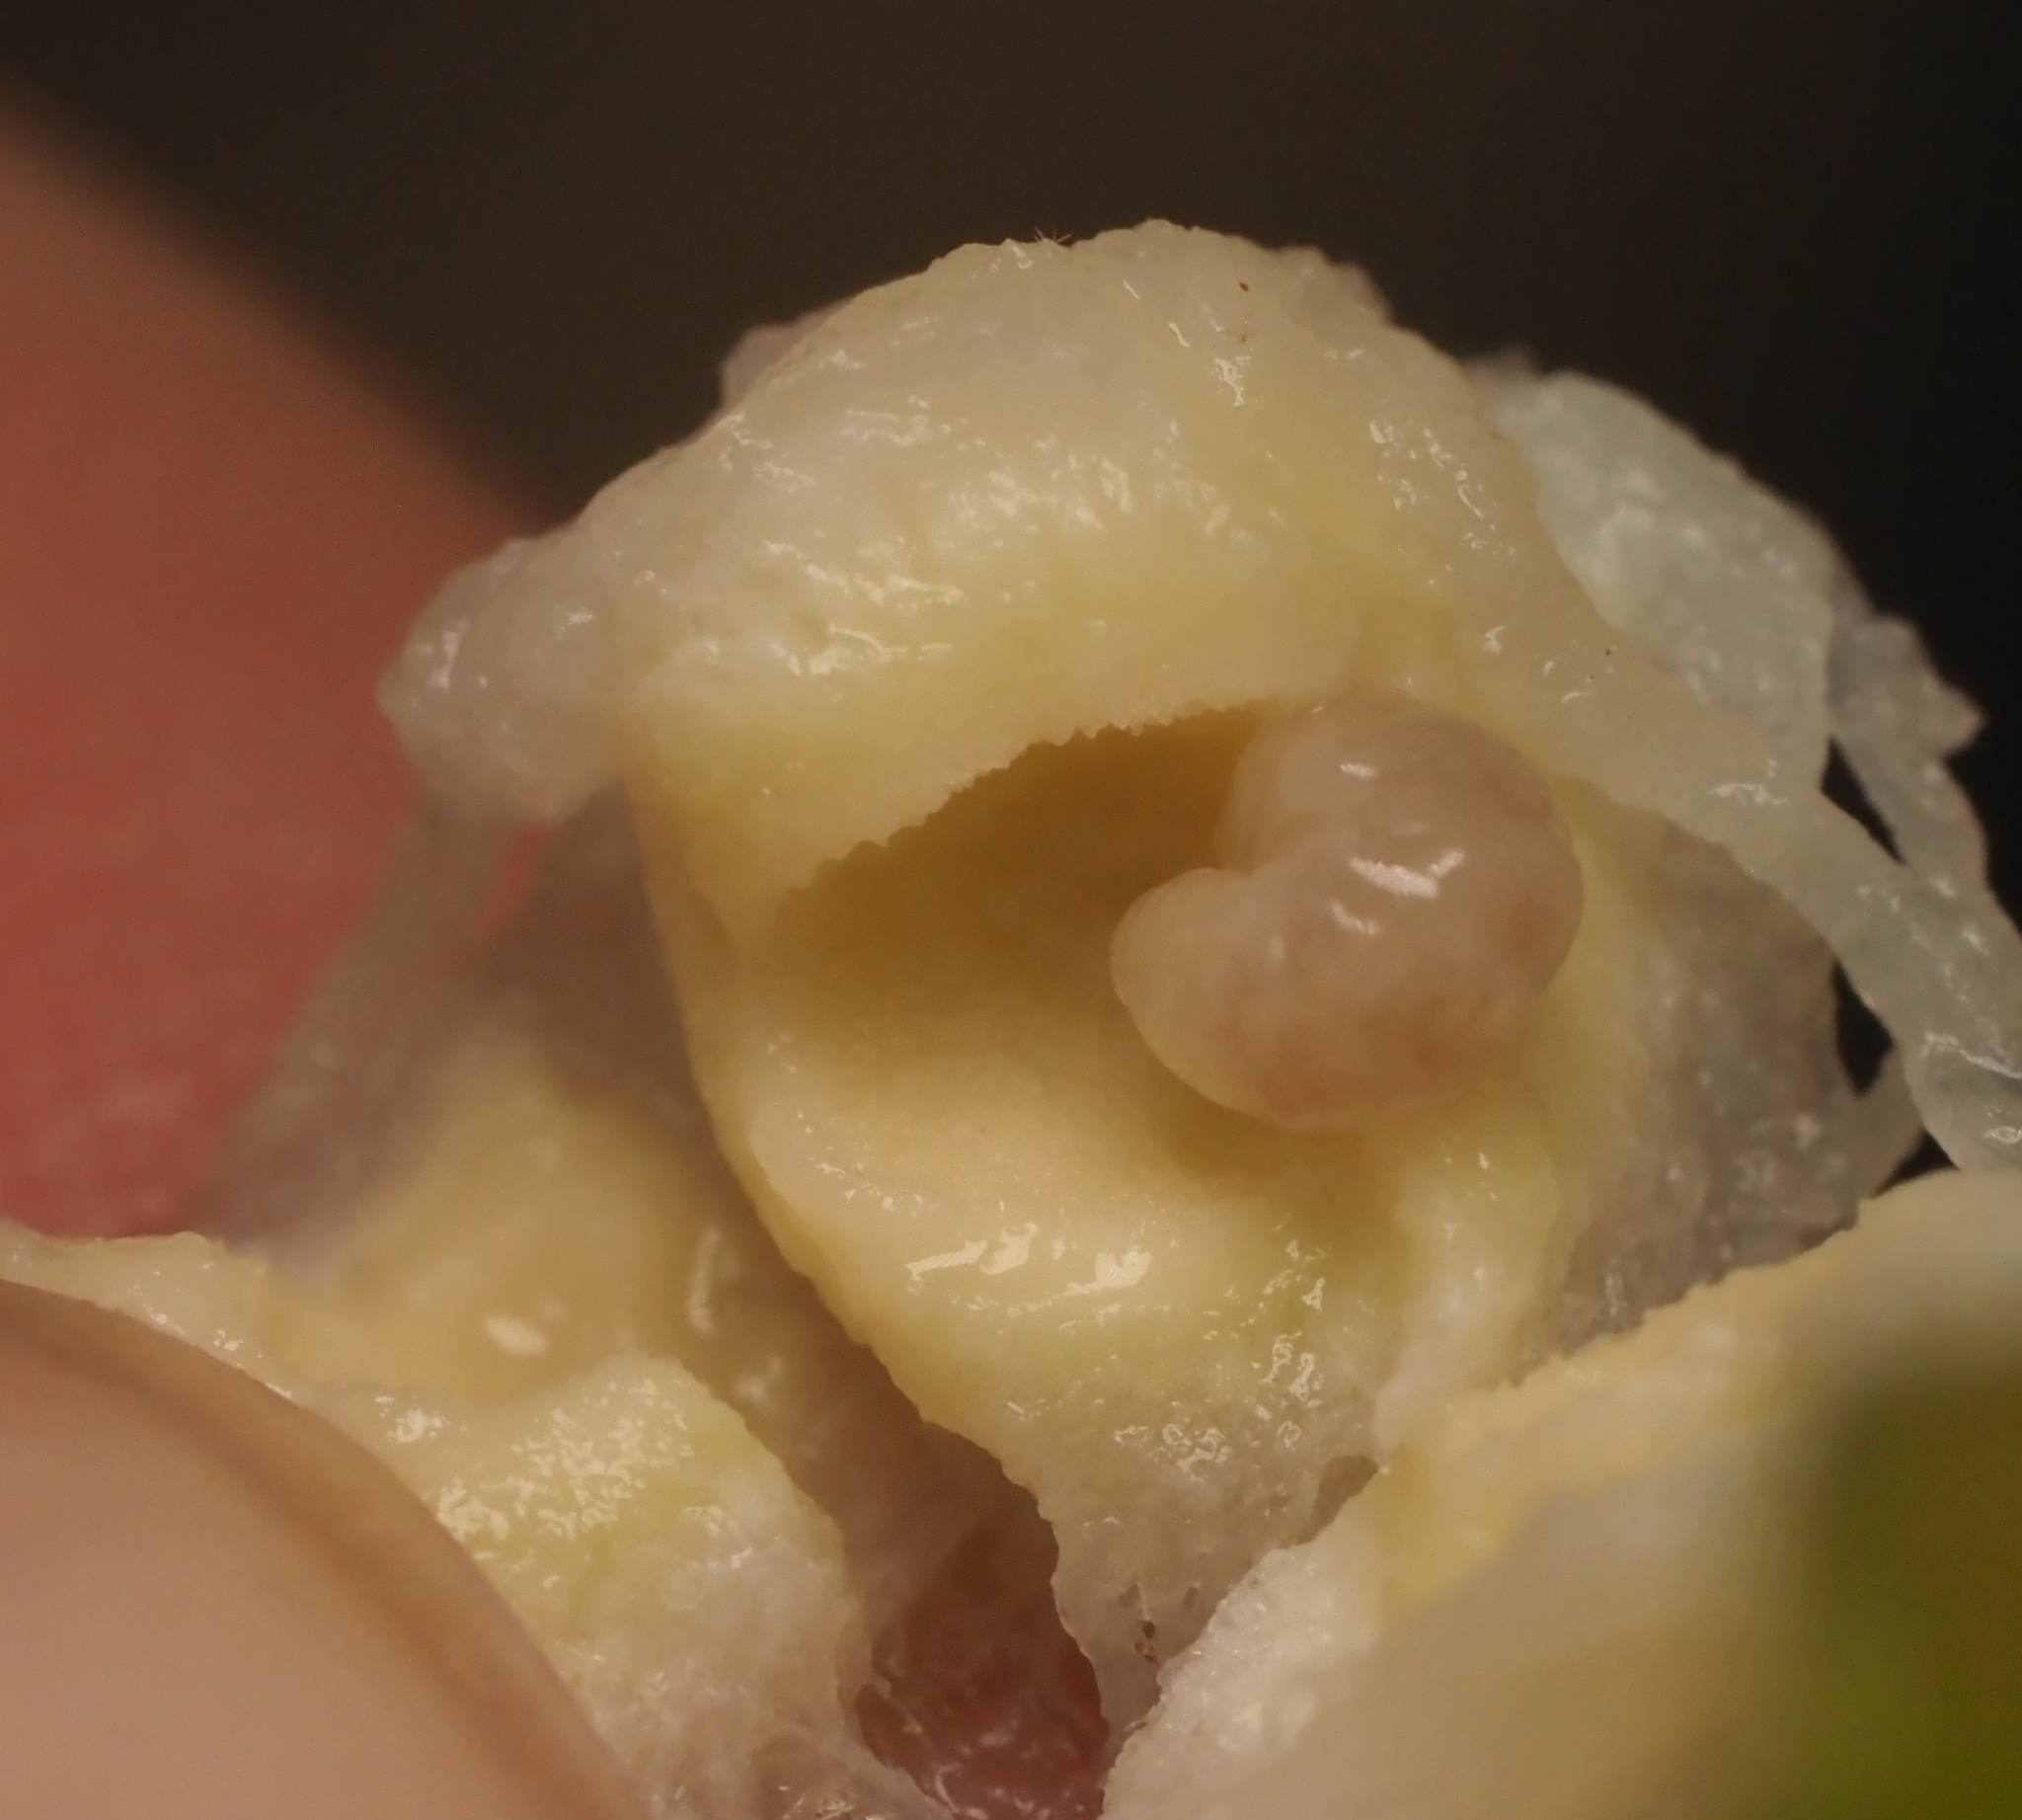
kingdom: Animalia
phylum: Arthropoda
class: Insecta
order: Hymenoptera
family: Cynipidae
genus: Amphibolips
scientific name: Amphibolips
